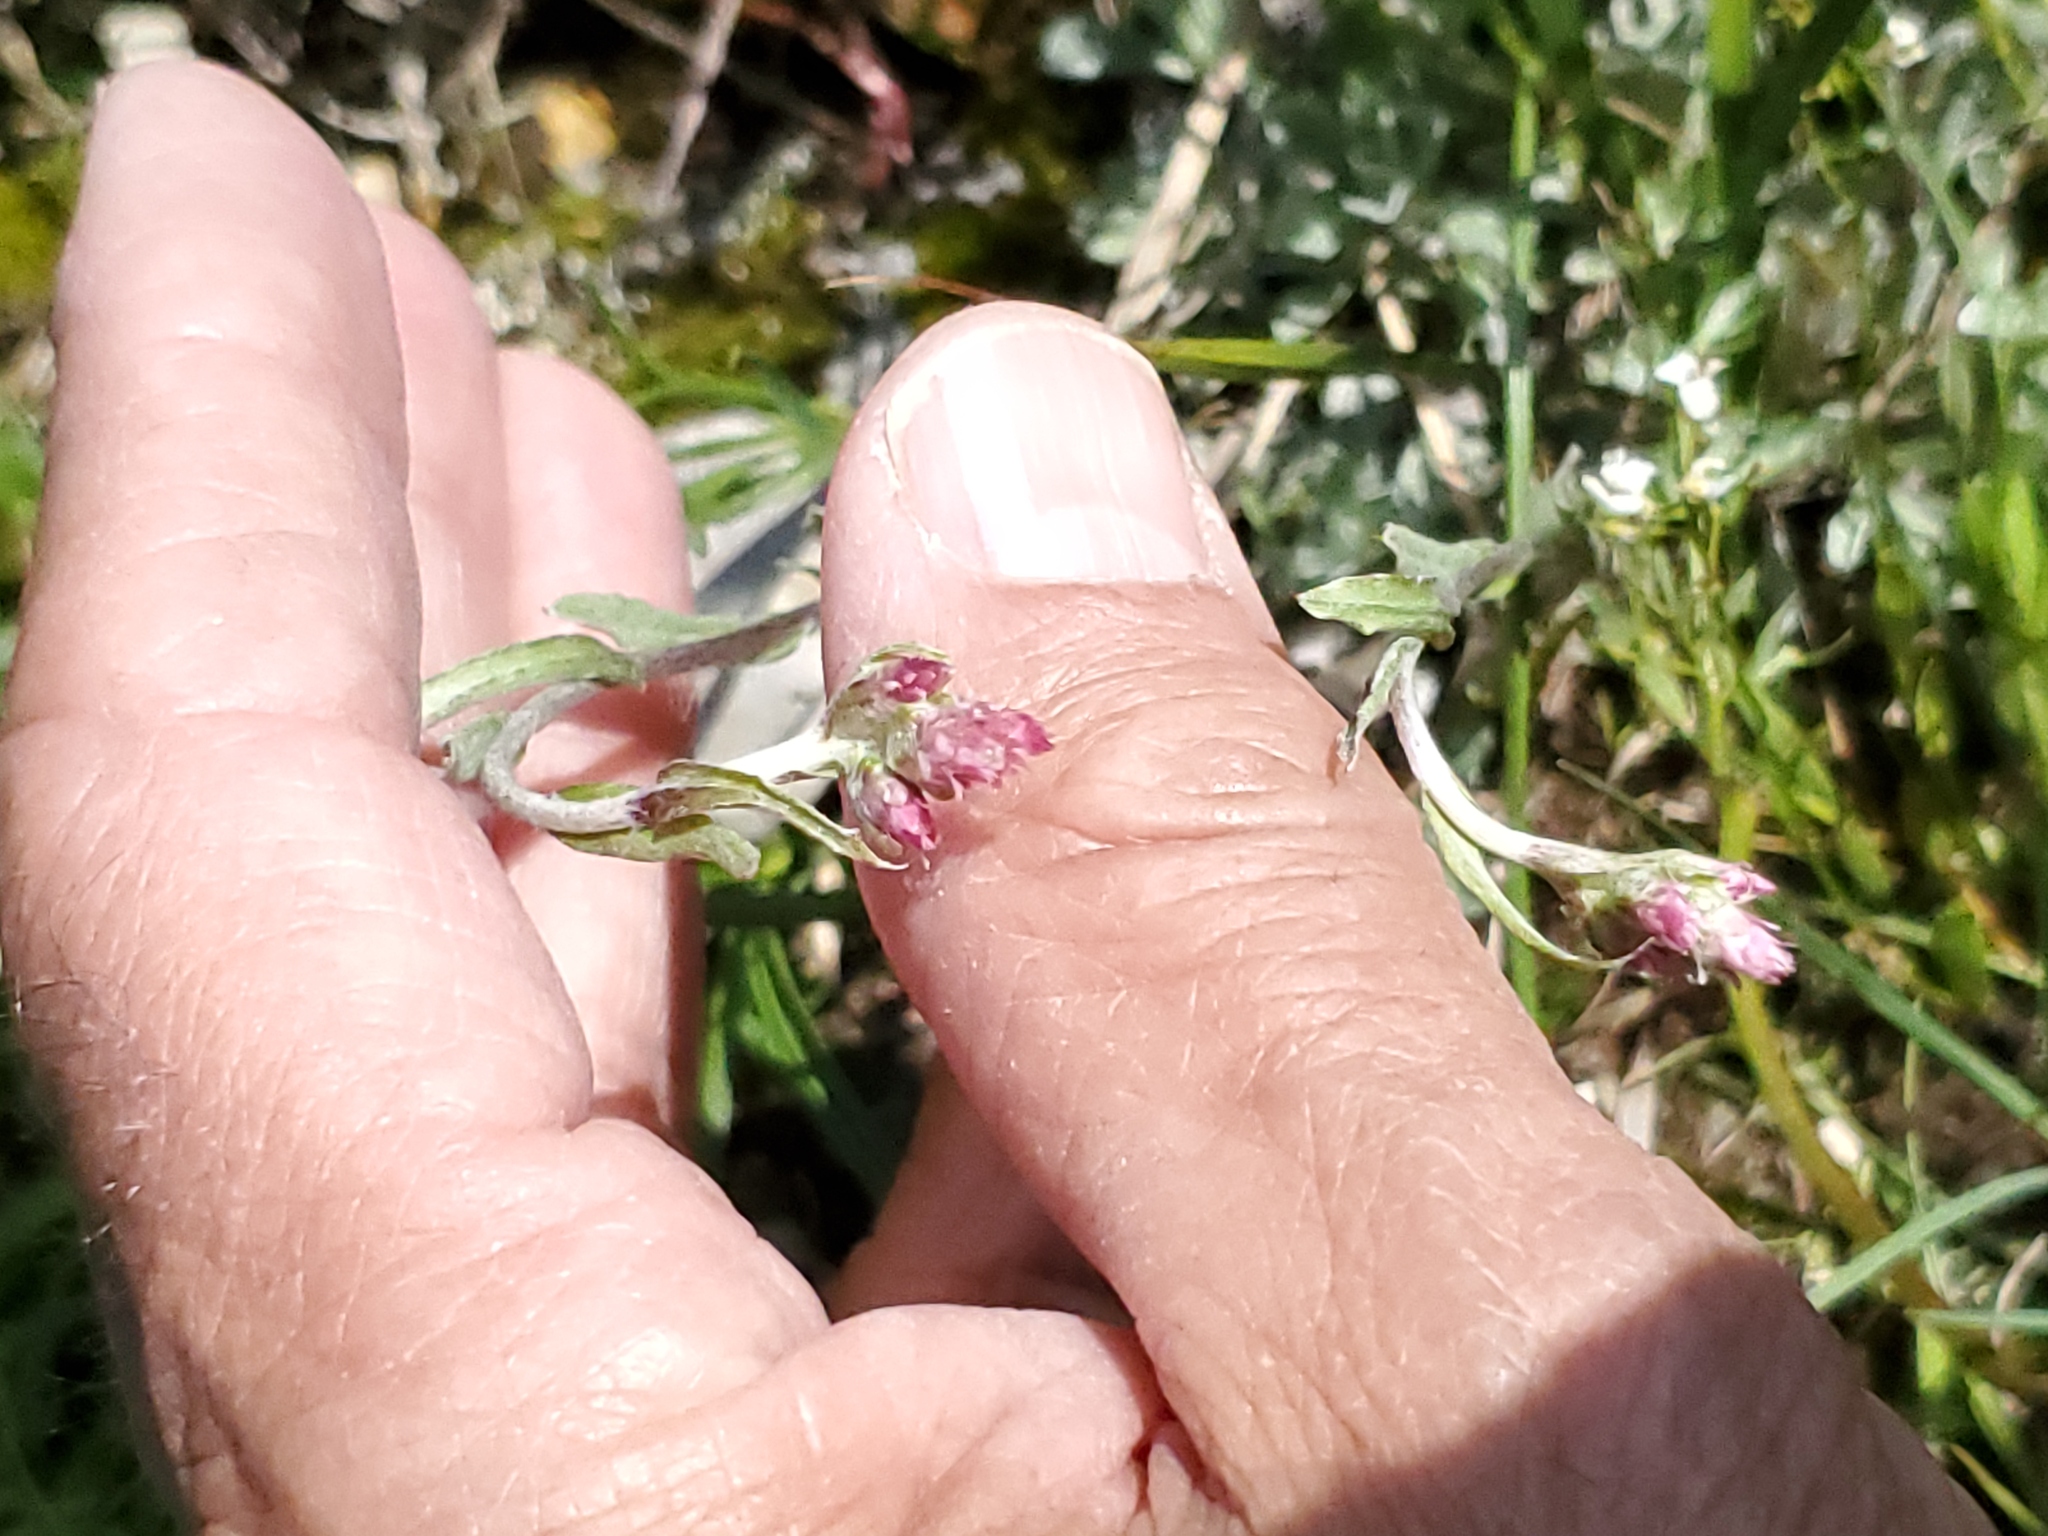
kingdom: Plantae
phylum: Tracheophyta
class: Magnoliopsida
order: Asterales
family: Asteraceae
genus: Antennaria
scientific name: Antennaria rosea
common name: Rosy pussytoes
